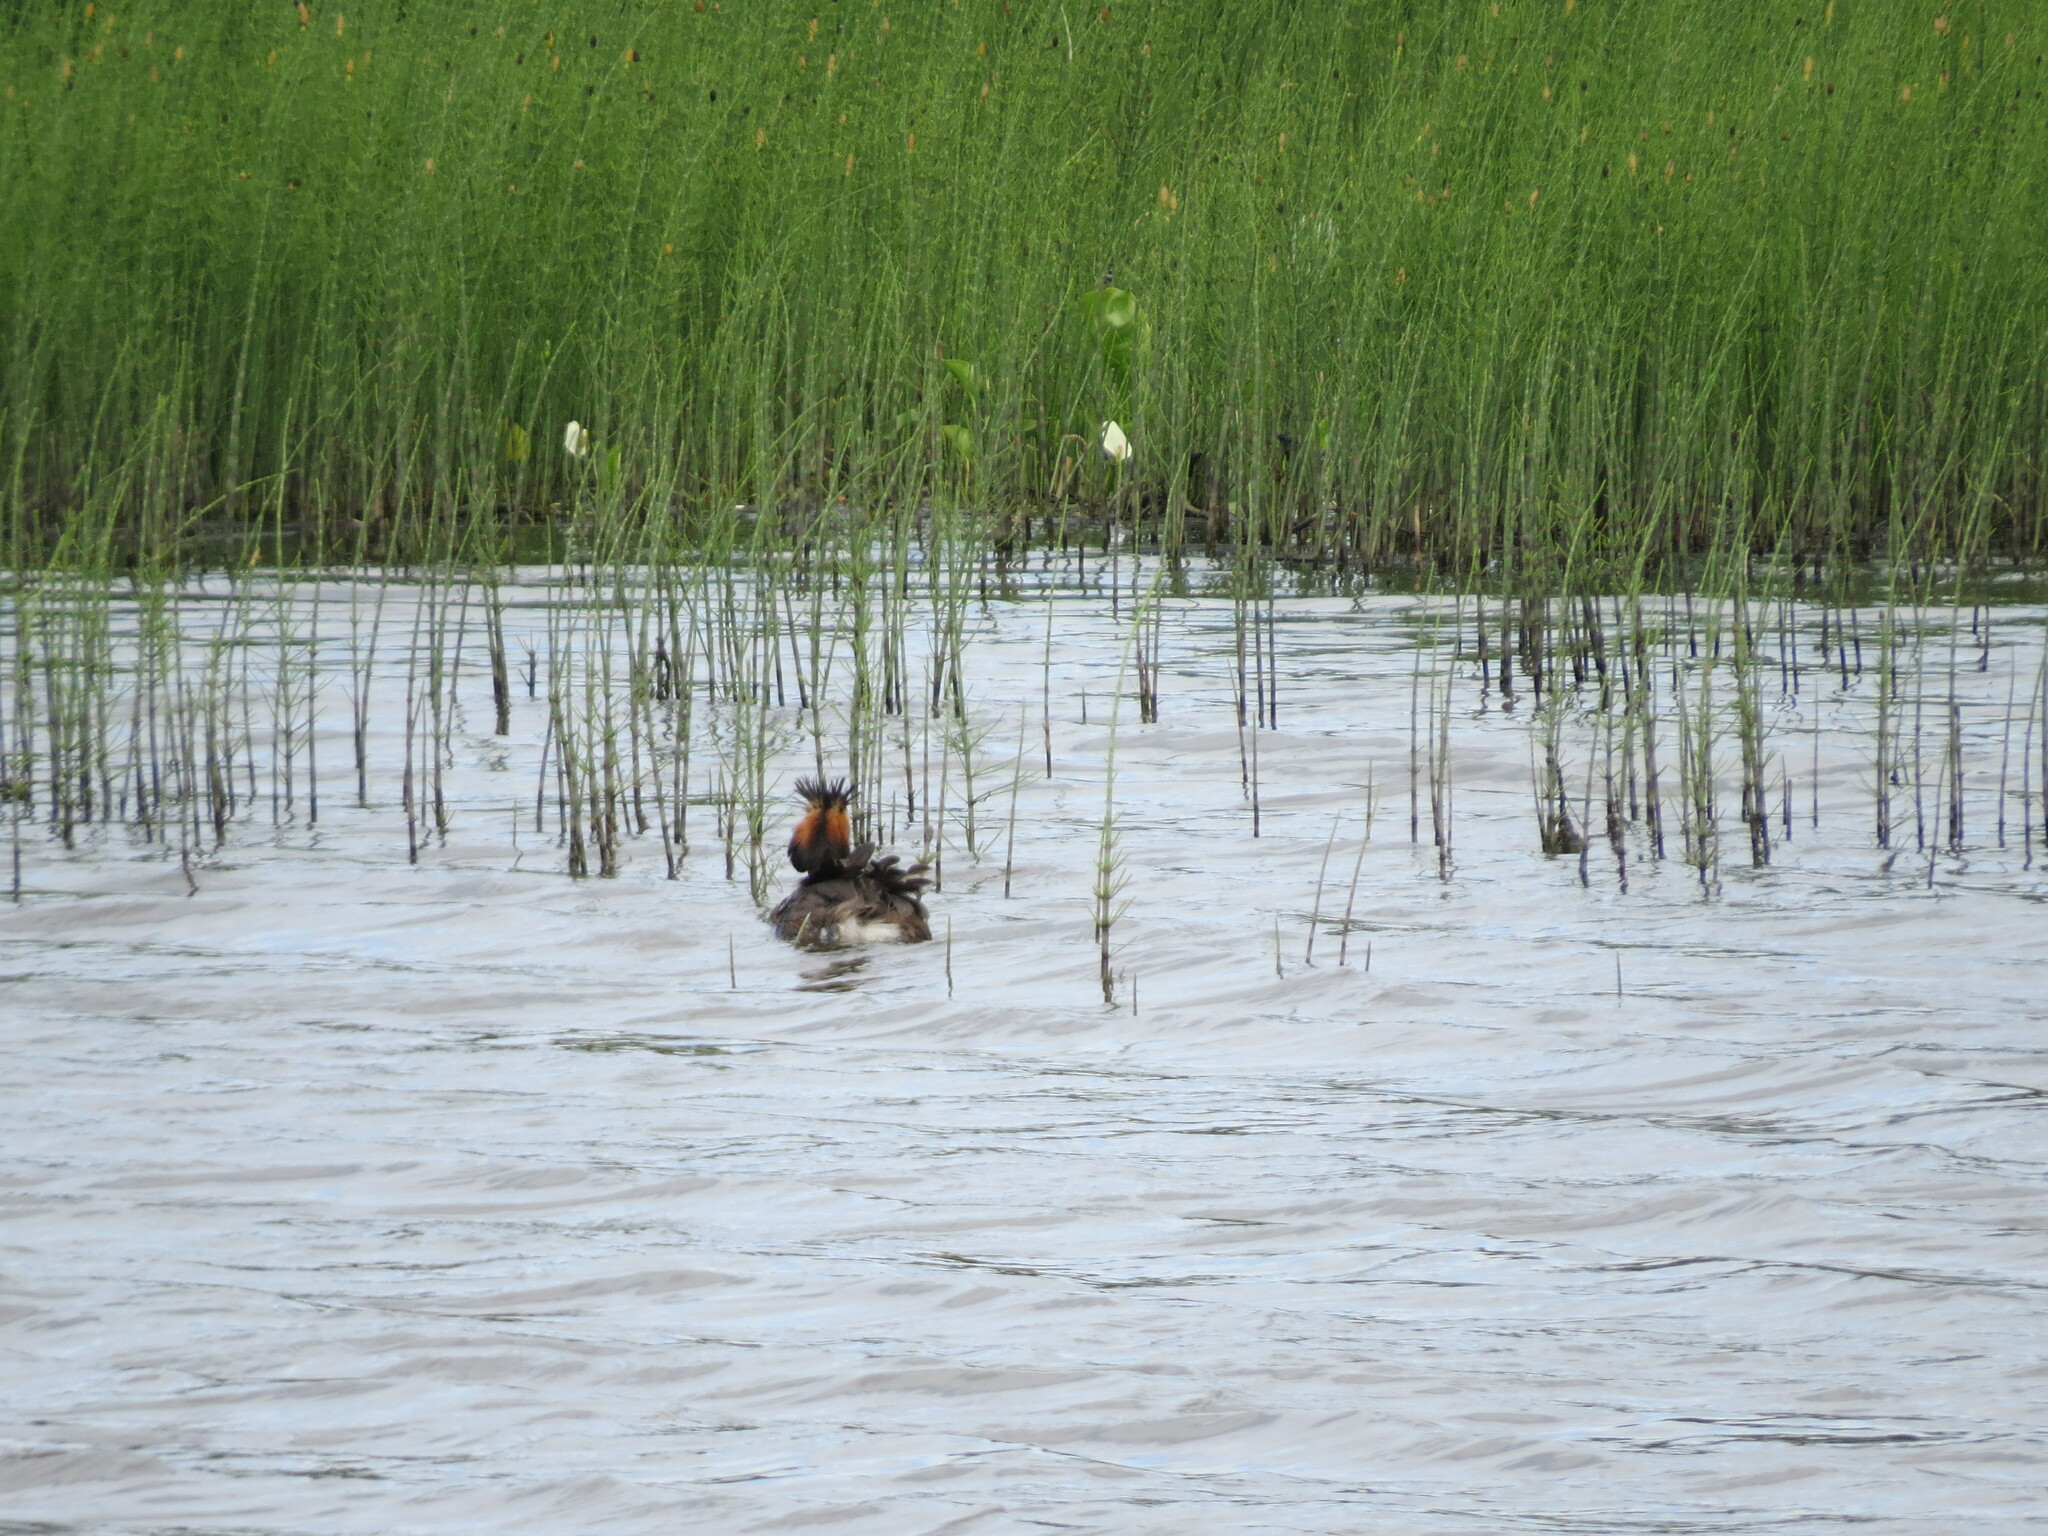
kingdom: Animalia
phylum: Chordata
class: Aves
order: Podicipediformes
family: Podicipedidae
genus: Podiceps
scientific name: Podiceps cristatus
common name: Great crested grebe
